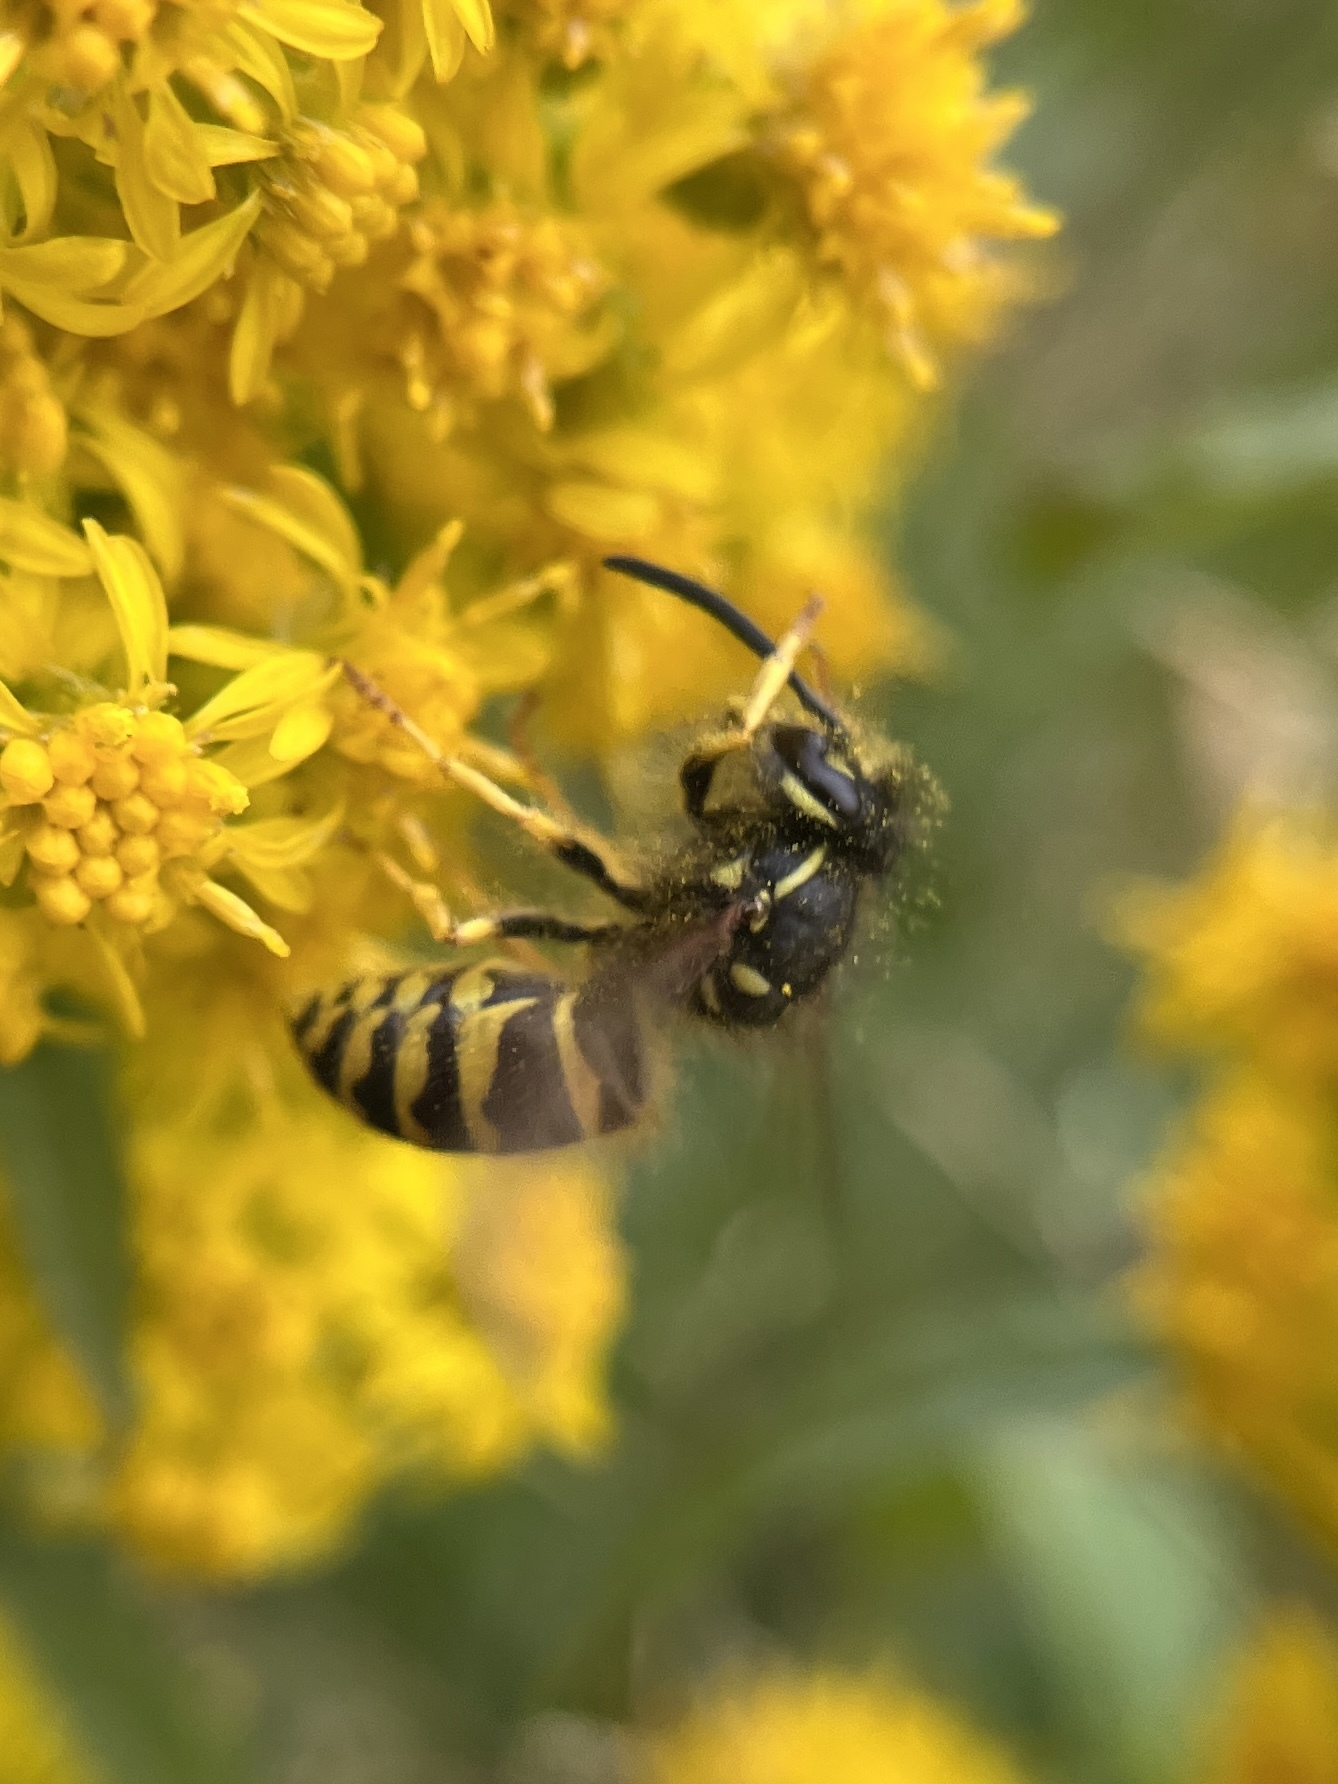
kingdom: Animalia
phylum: Arthropoda
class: Insecta
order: Hymenoptera
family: Vespidae
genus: Vespula
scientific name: Vespula alascensis
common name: Alaska yellowjacket
